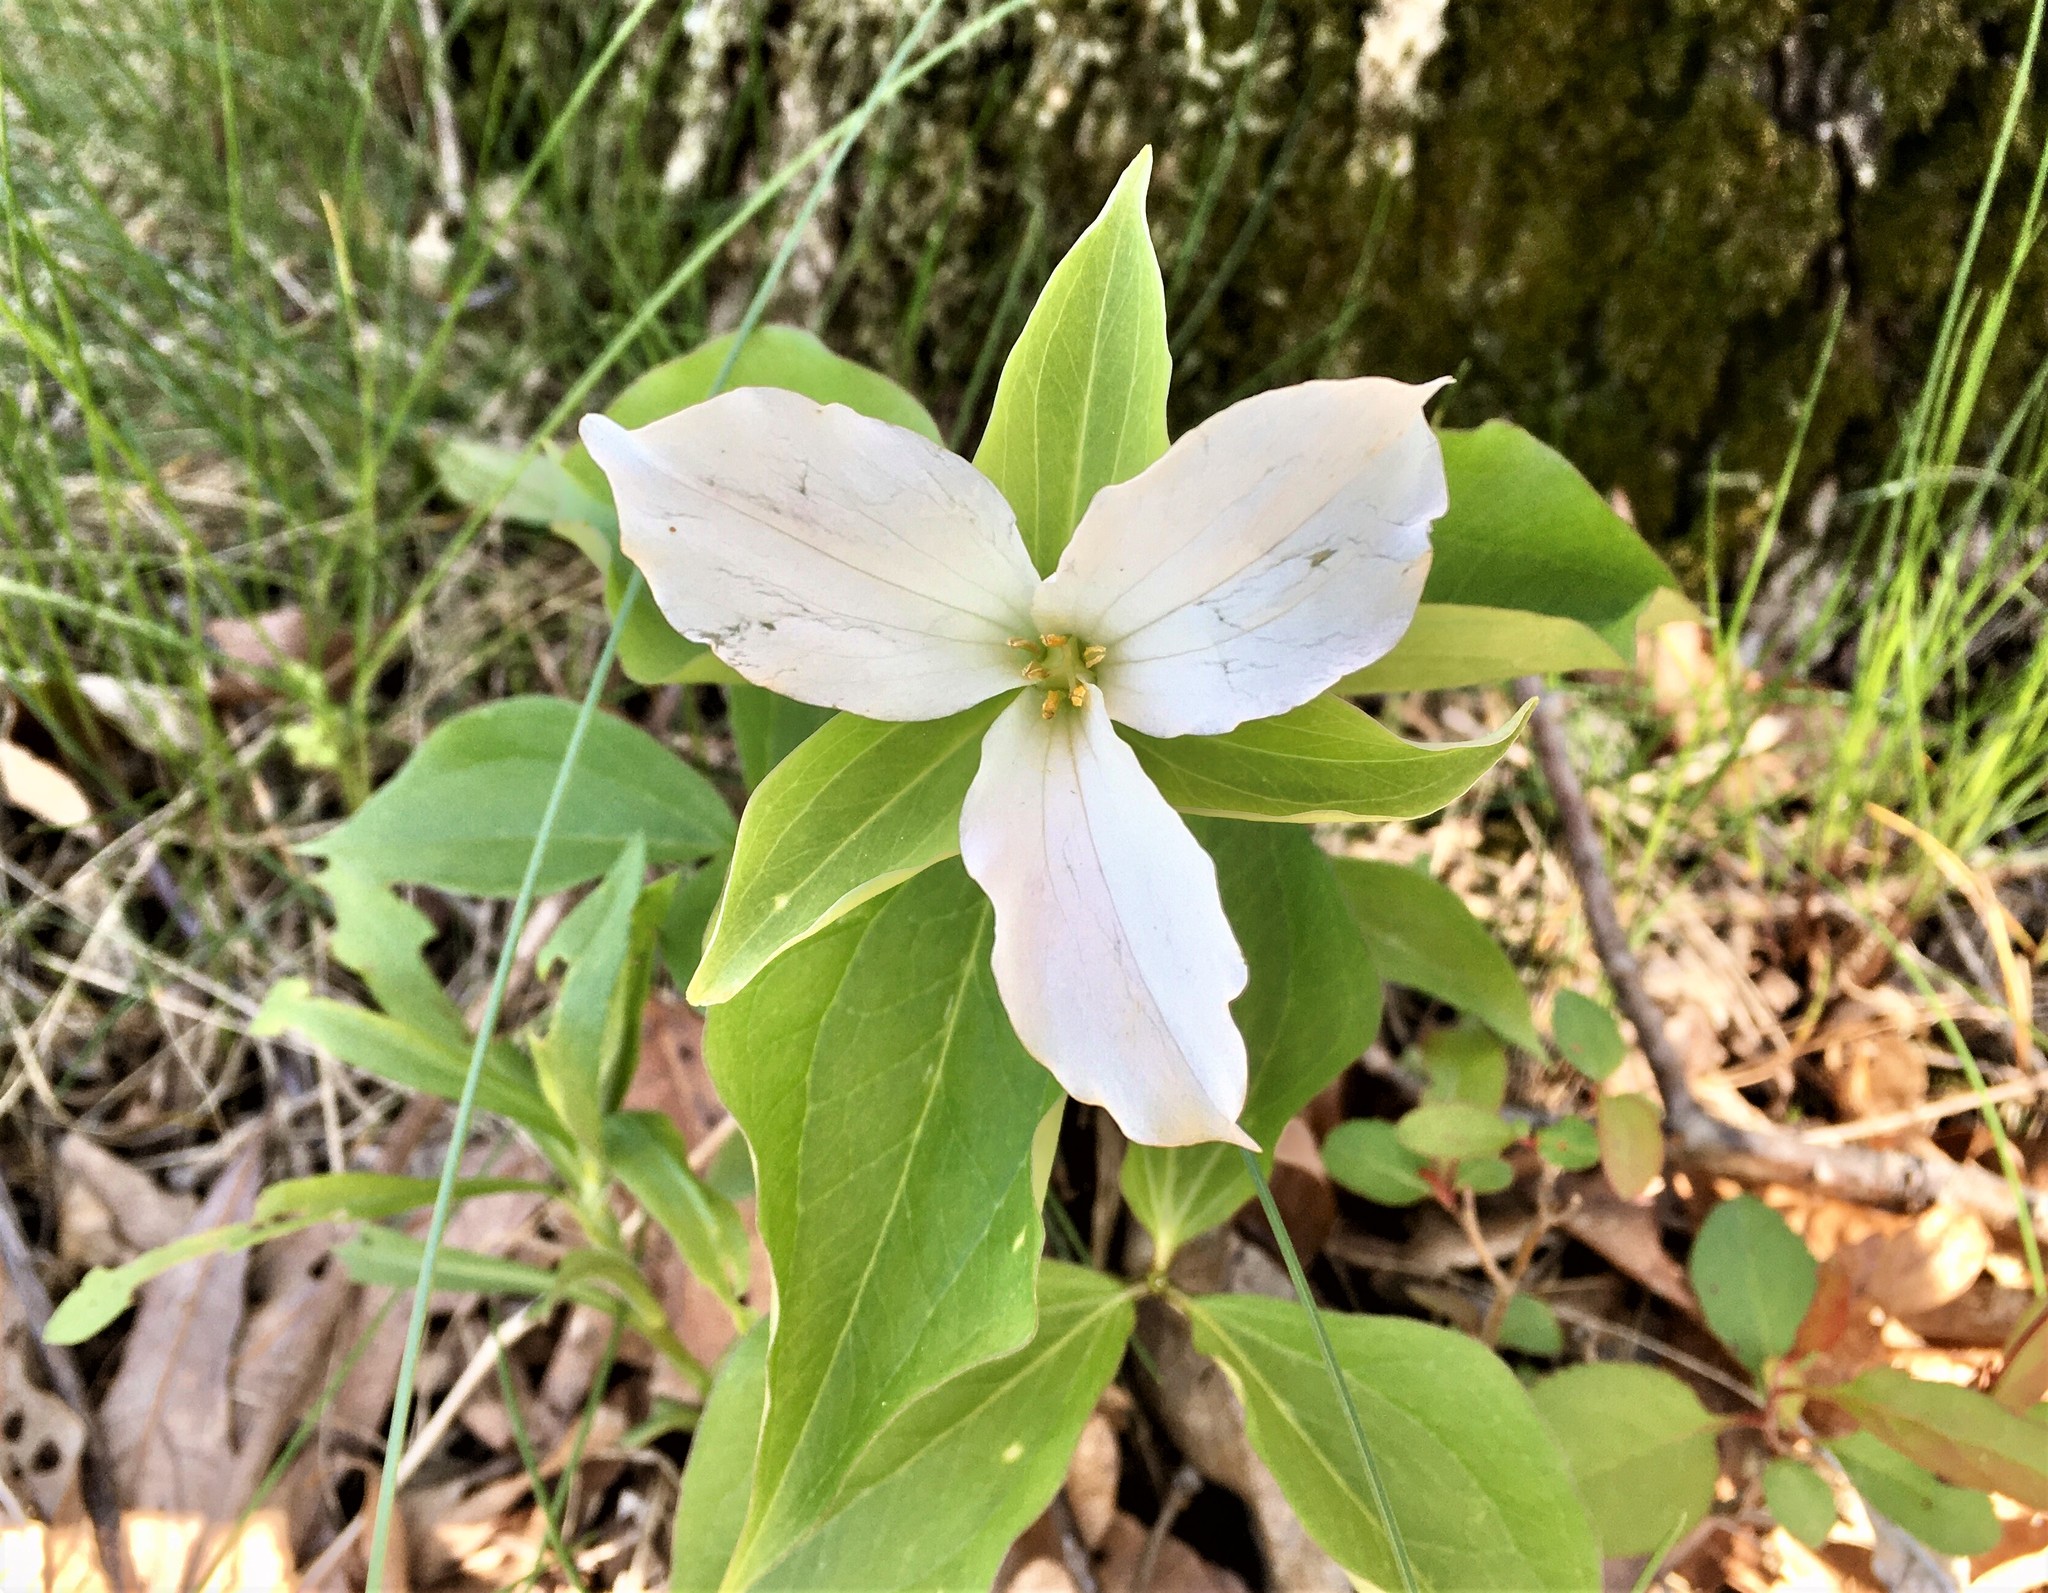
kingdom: Plantae
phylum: Tracheophyta
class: Liliopsida
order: Liliales
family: Melanthiaceae
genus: Trillium
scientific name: Trillium grandiflorum
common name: Great white trillium
